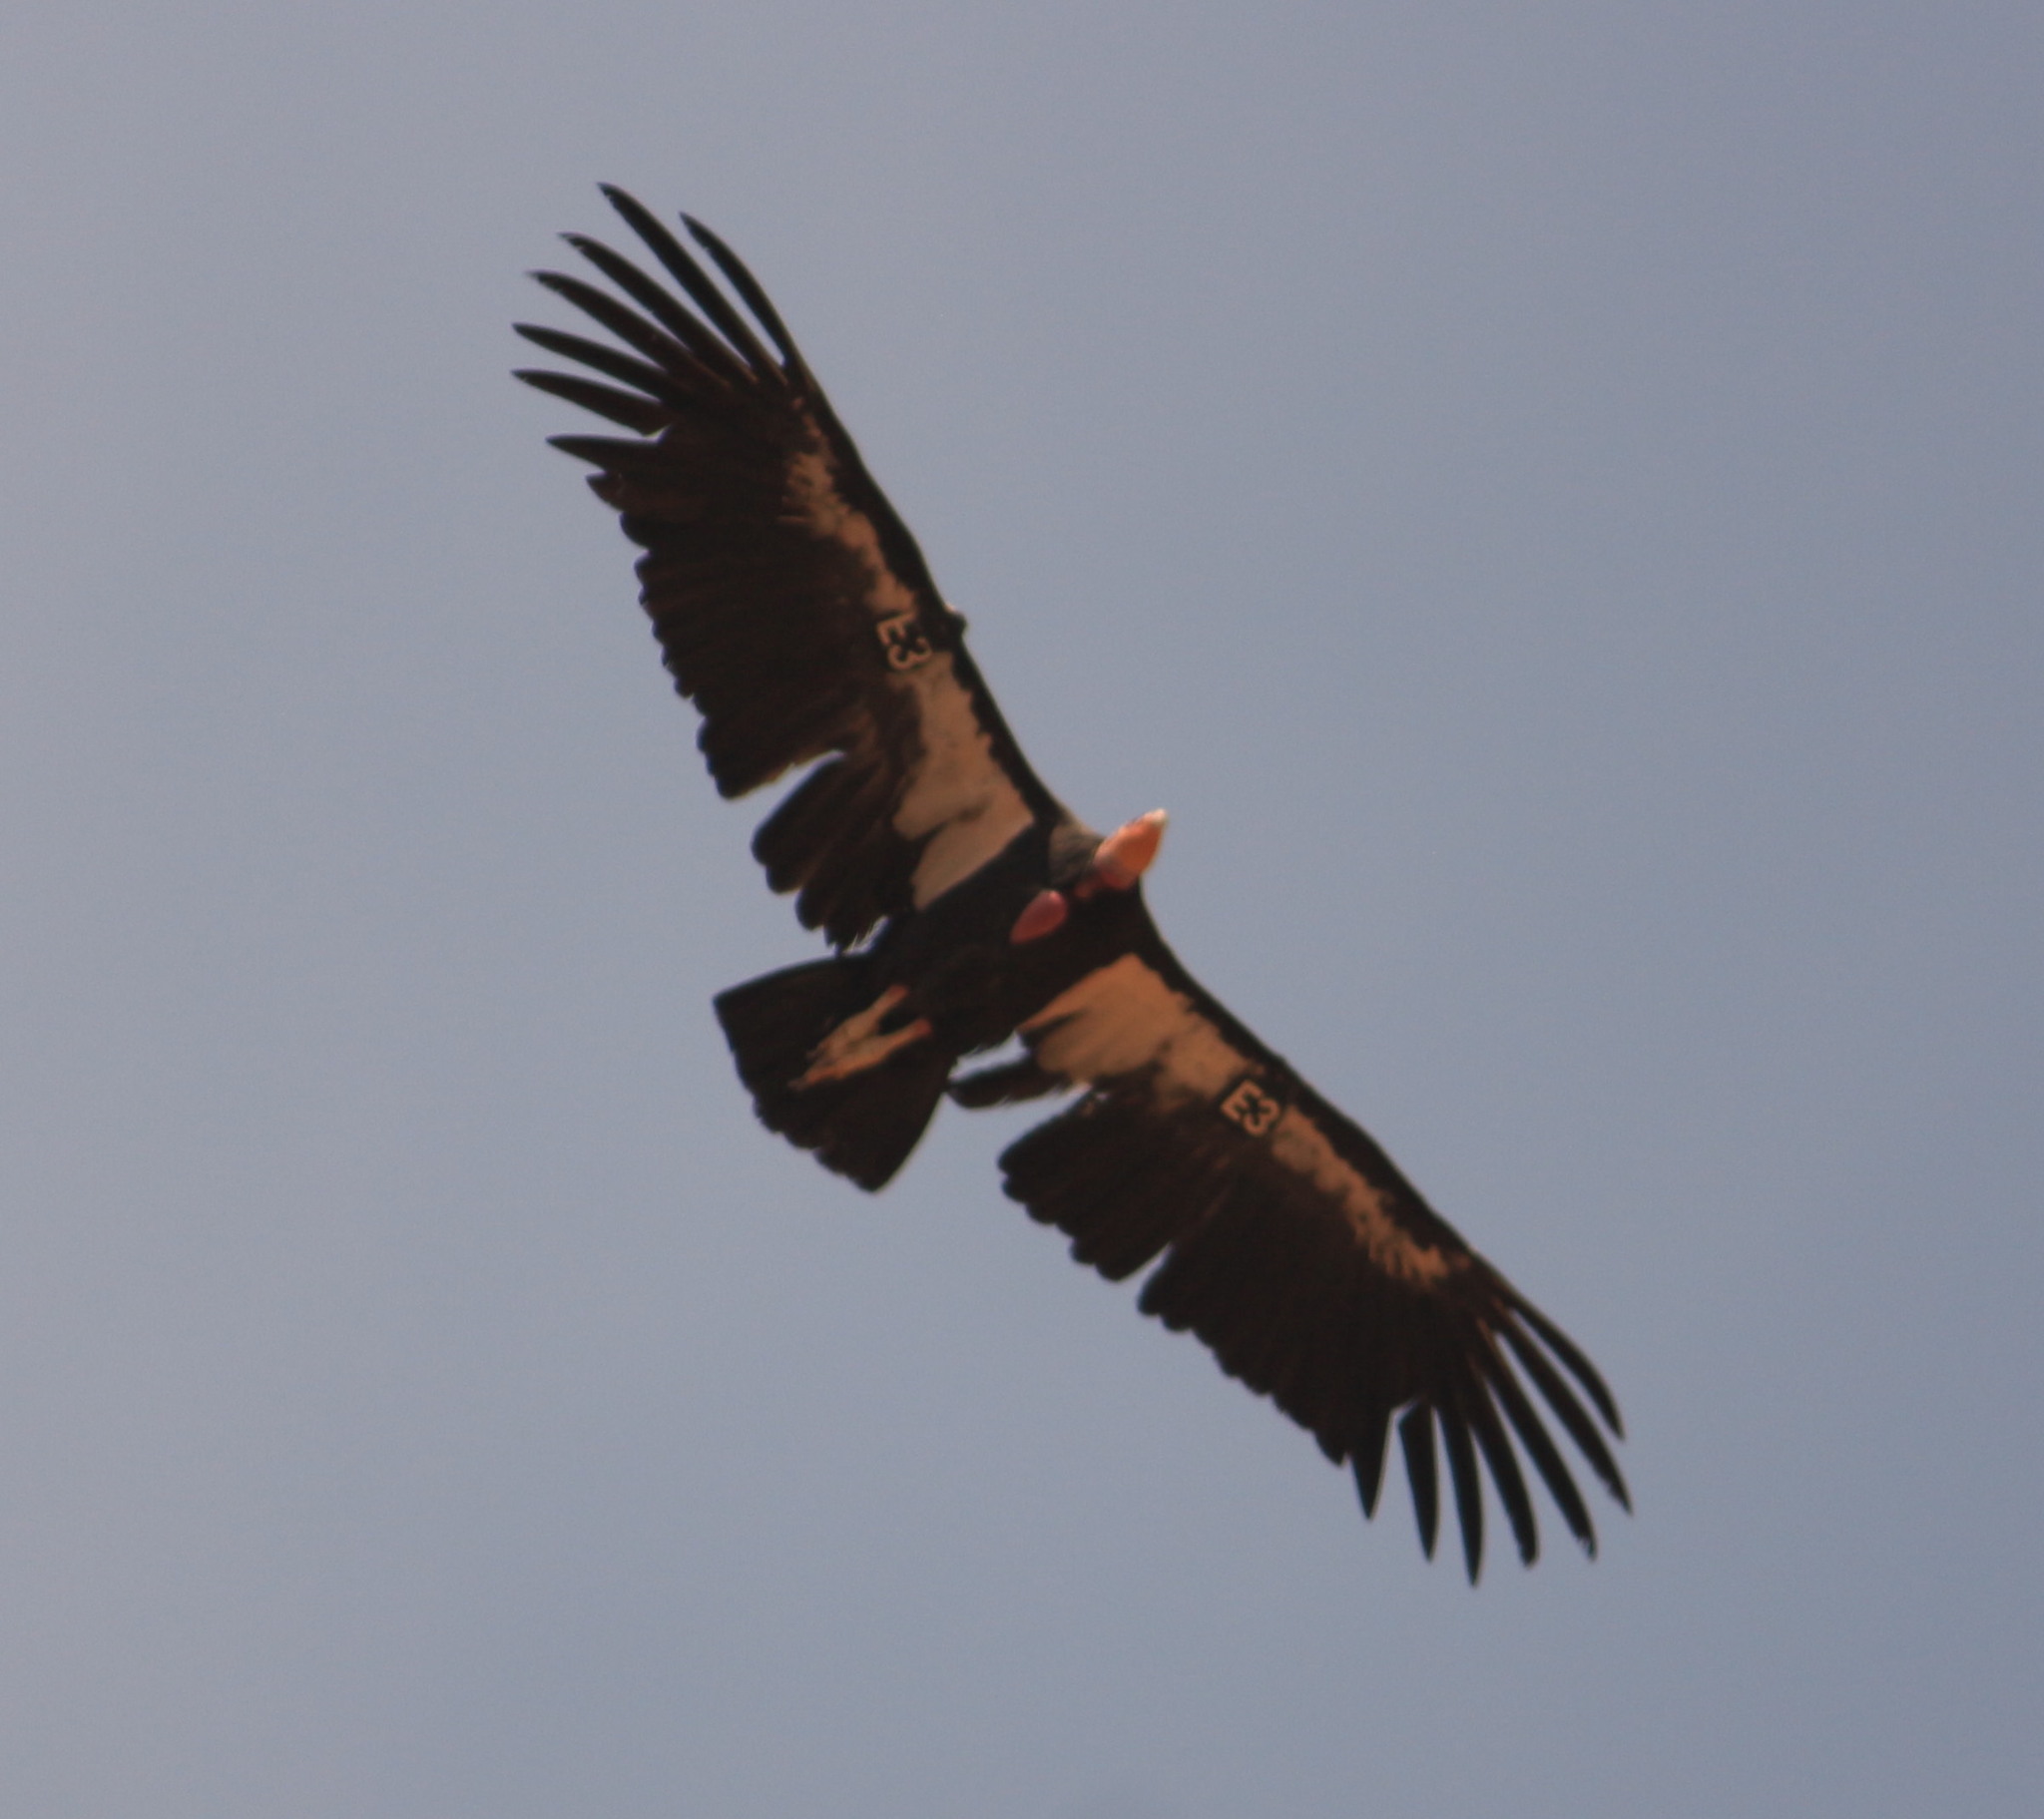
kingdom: Animalia
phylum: Chordata
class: Aves
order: Accipitriformes
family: Cathartidae
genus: Gymnogyps
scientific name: Gymnogyps californianus
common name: California condor
